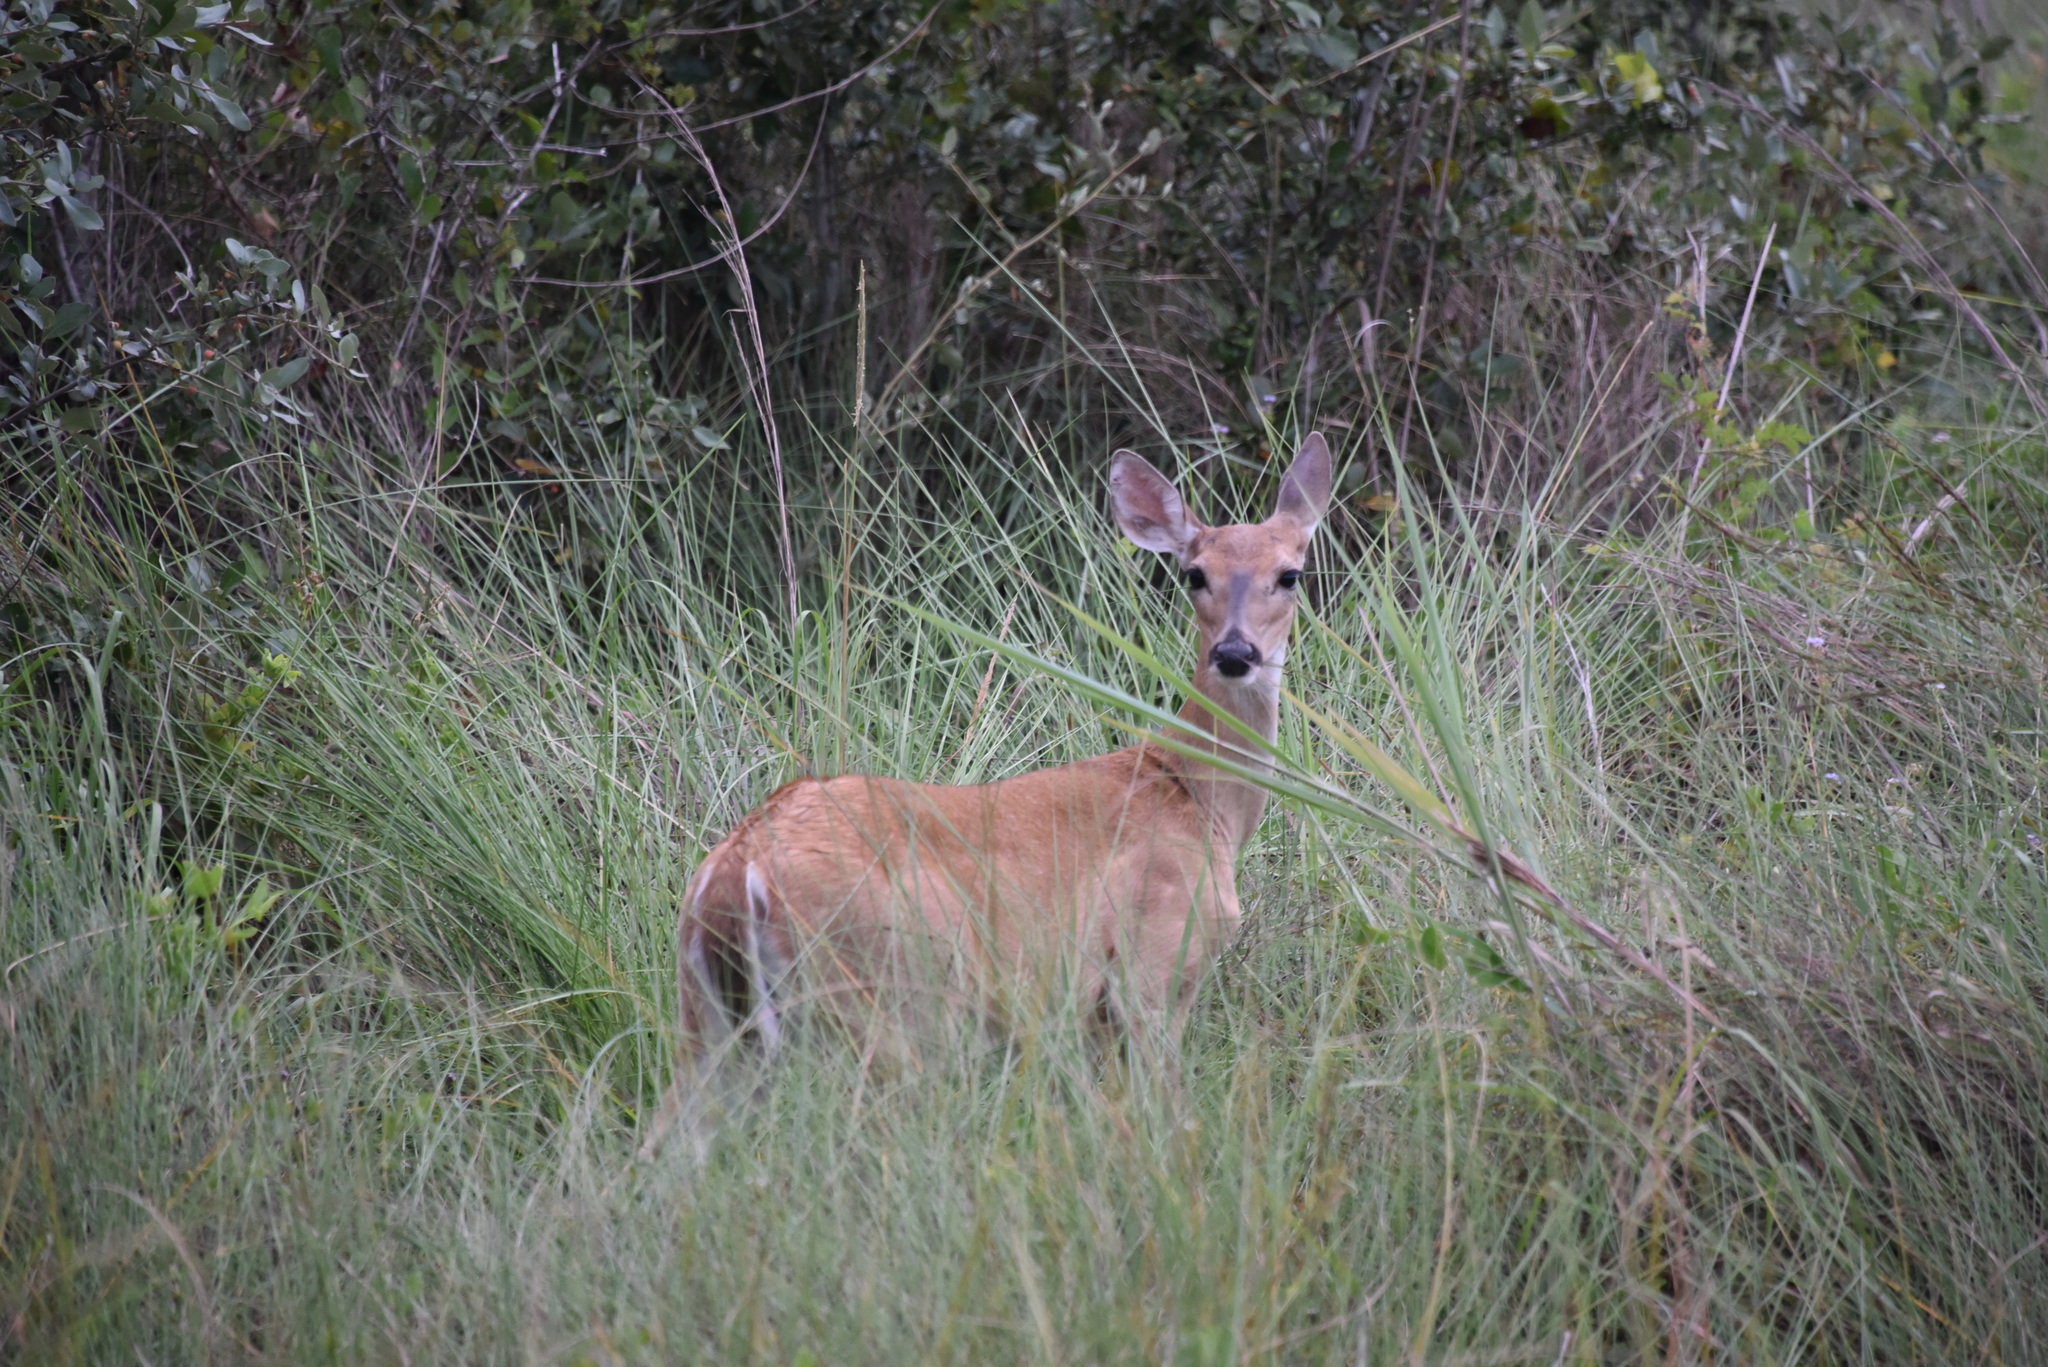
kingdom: Animalia
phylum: Chordata
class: Mammalia
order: Artiodactyla
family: Cervidae
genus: Odocoileus
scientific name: Odocoileus virginianus
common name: White-tailed deer
